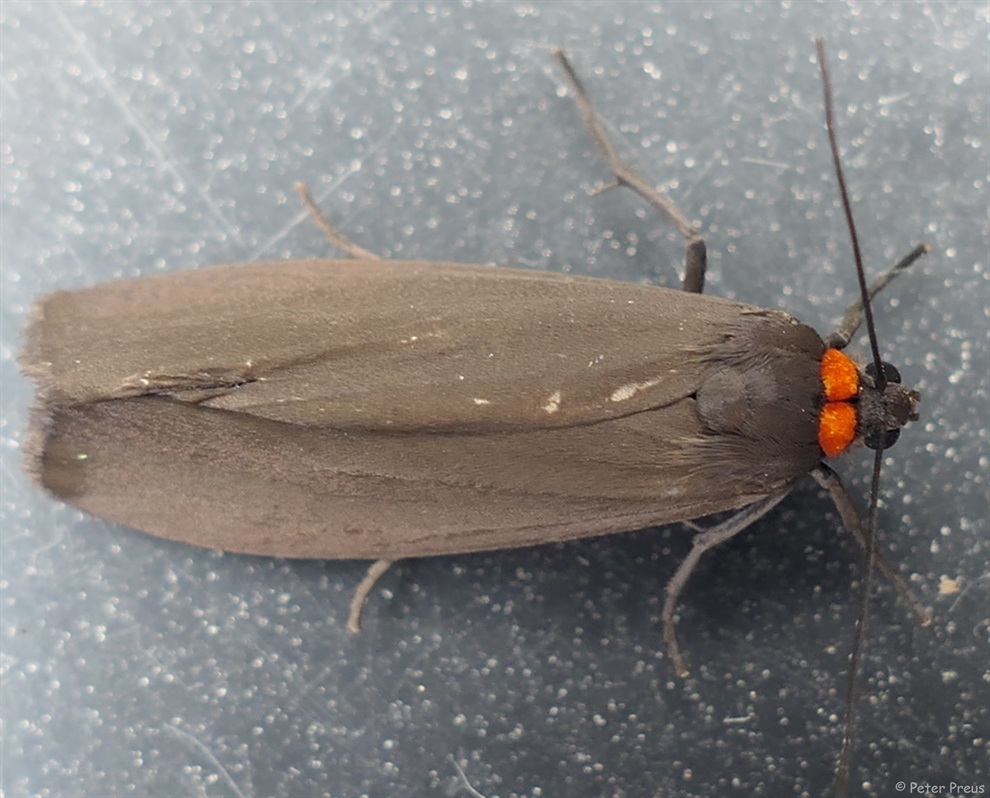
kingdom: Animalia
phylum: Arthropoda
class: Insecta
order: Lepidoptera
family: Erebidae
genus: Atolmis
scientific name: Atolmis rubricollis
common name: Red-necked footman
